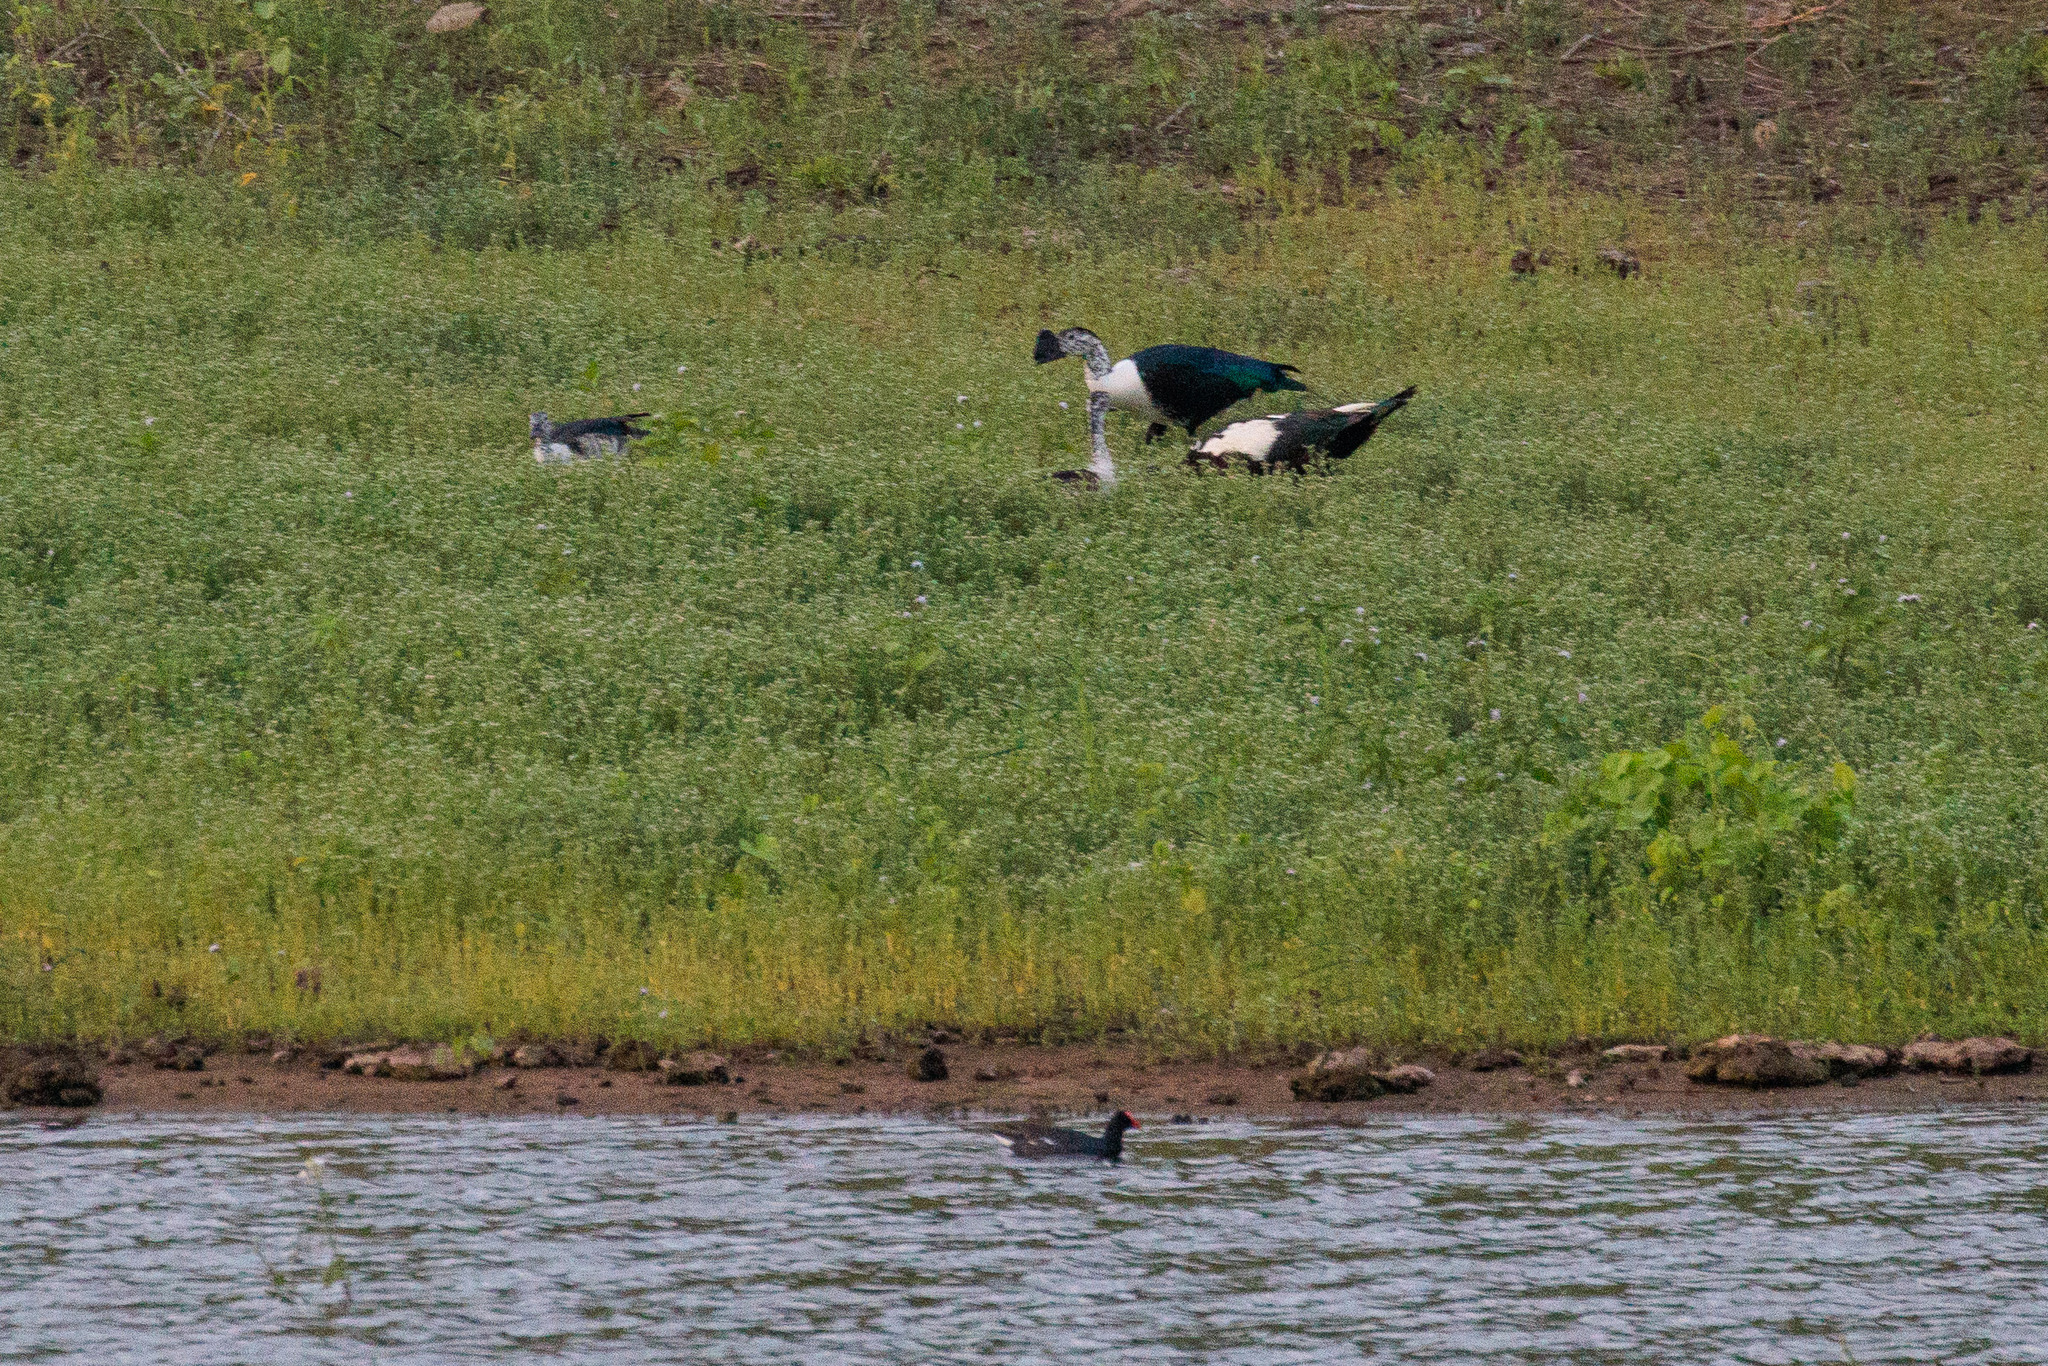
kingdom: Animalia
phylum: Chordata
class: Aves
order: Anseriformes
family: Anatidae
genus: Sarkidiornis
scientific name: Sarkidiornis sylvicola
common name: Comb duck
